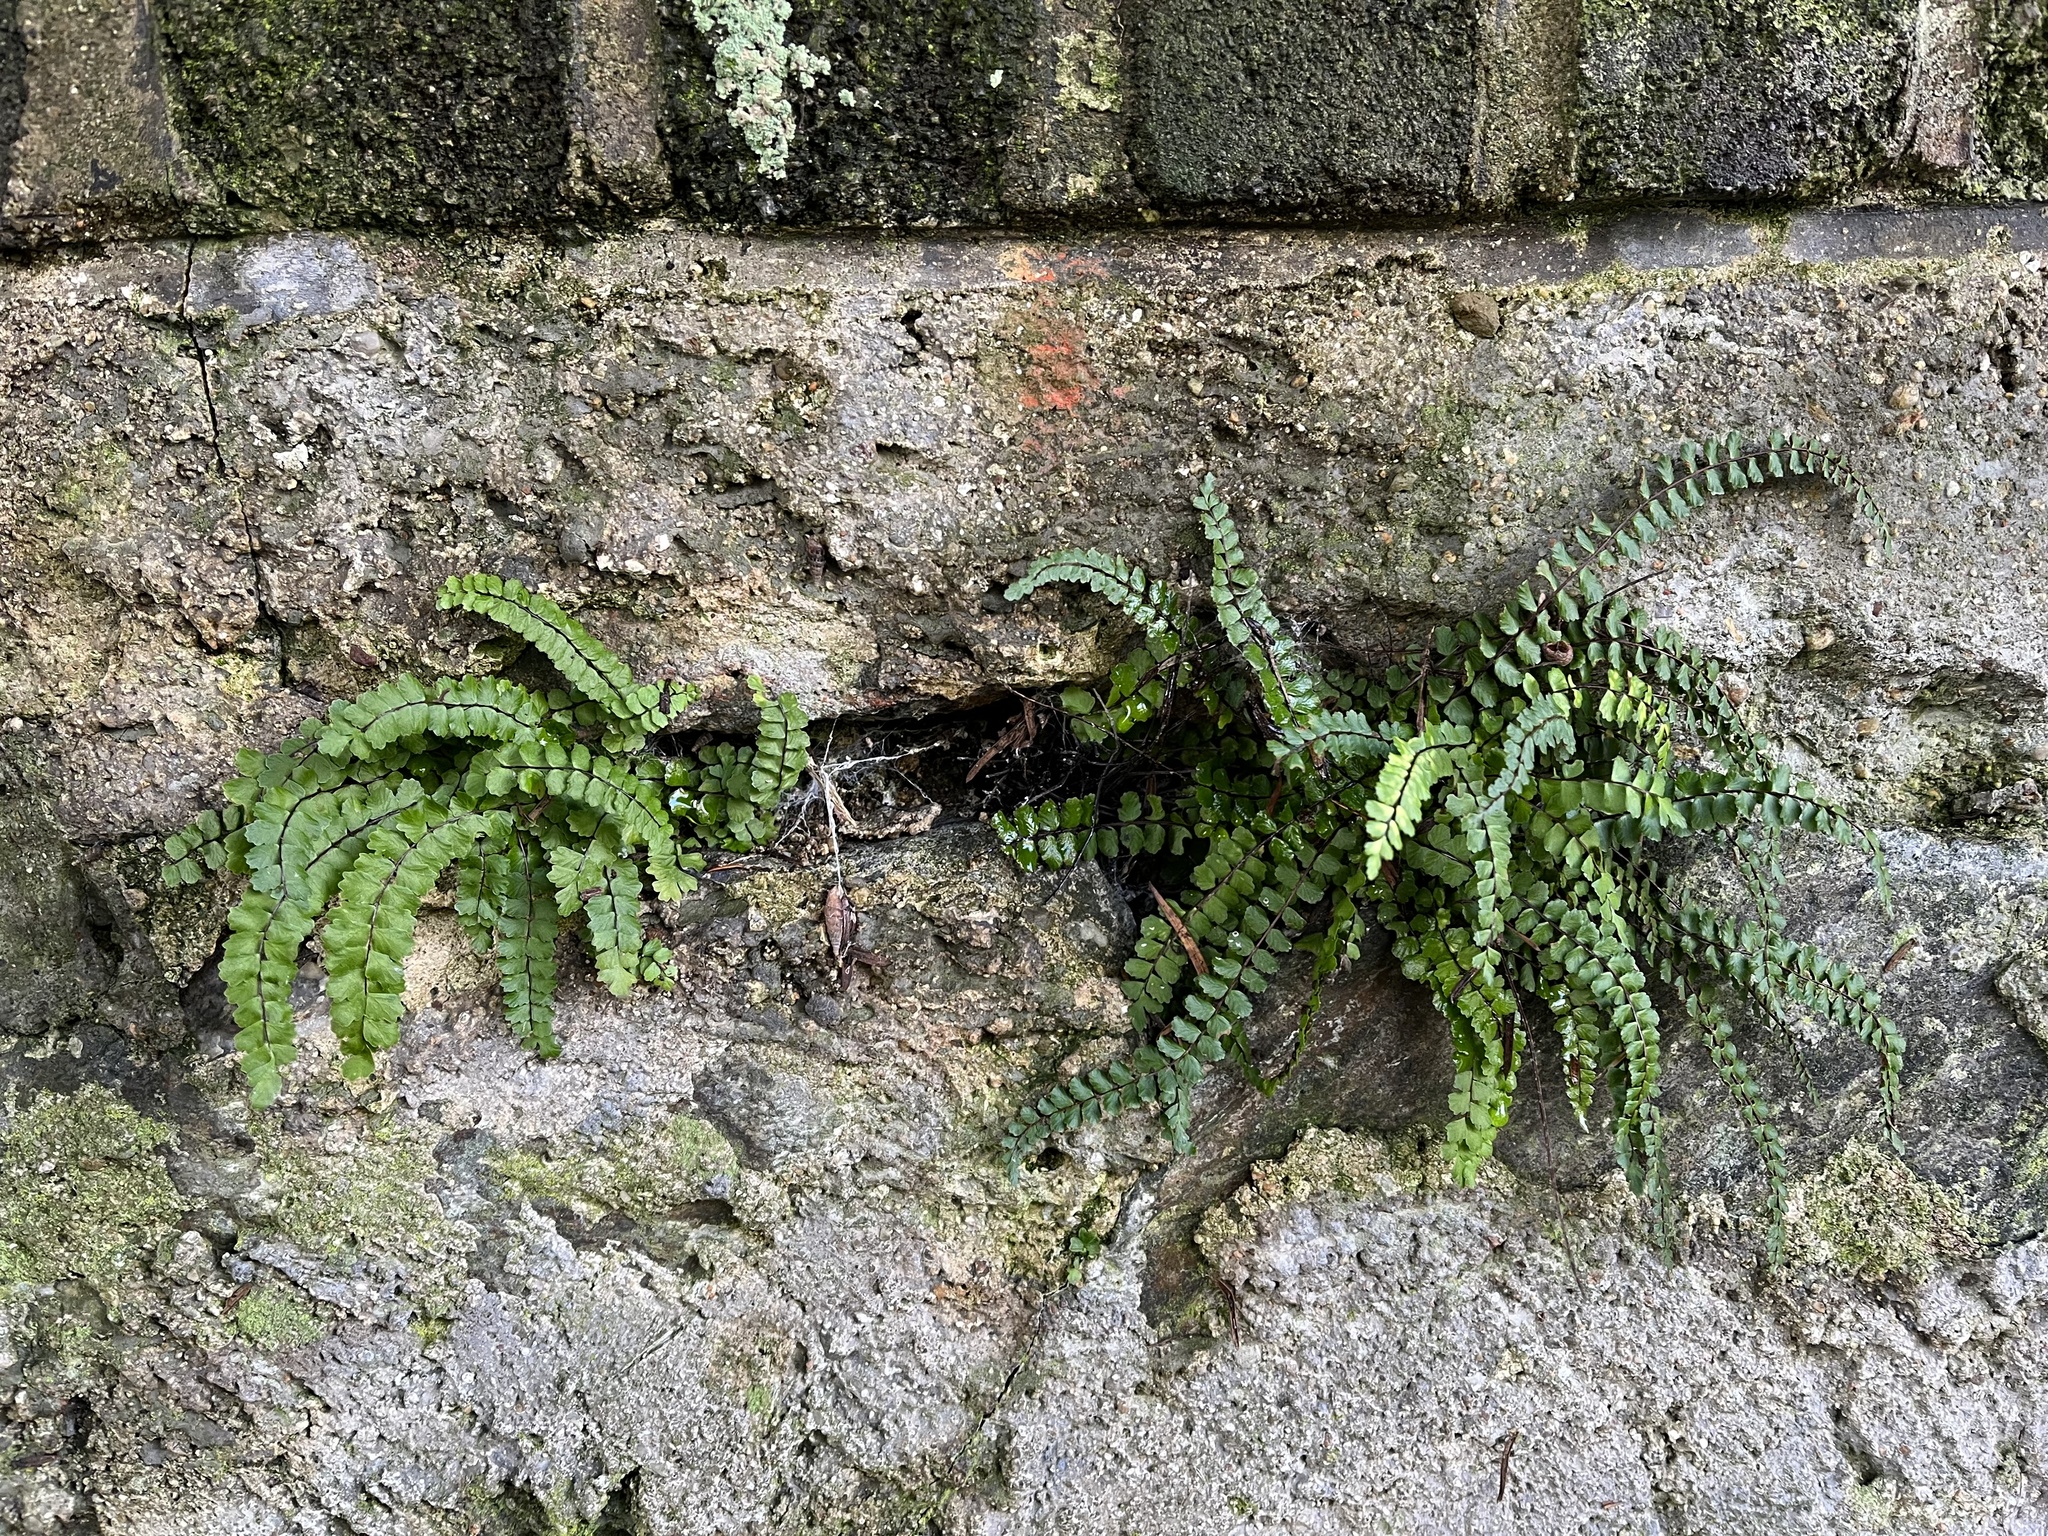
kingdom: Plantae
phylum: Tracheophyta
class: Polypodiopsida
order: Polypodiales
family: Aspleniaceae
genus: Asplenium
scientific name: Asplenium trichomanes
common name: Maidenhair spleenwort
